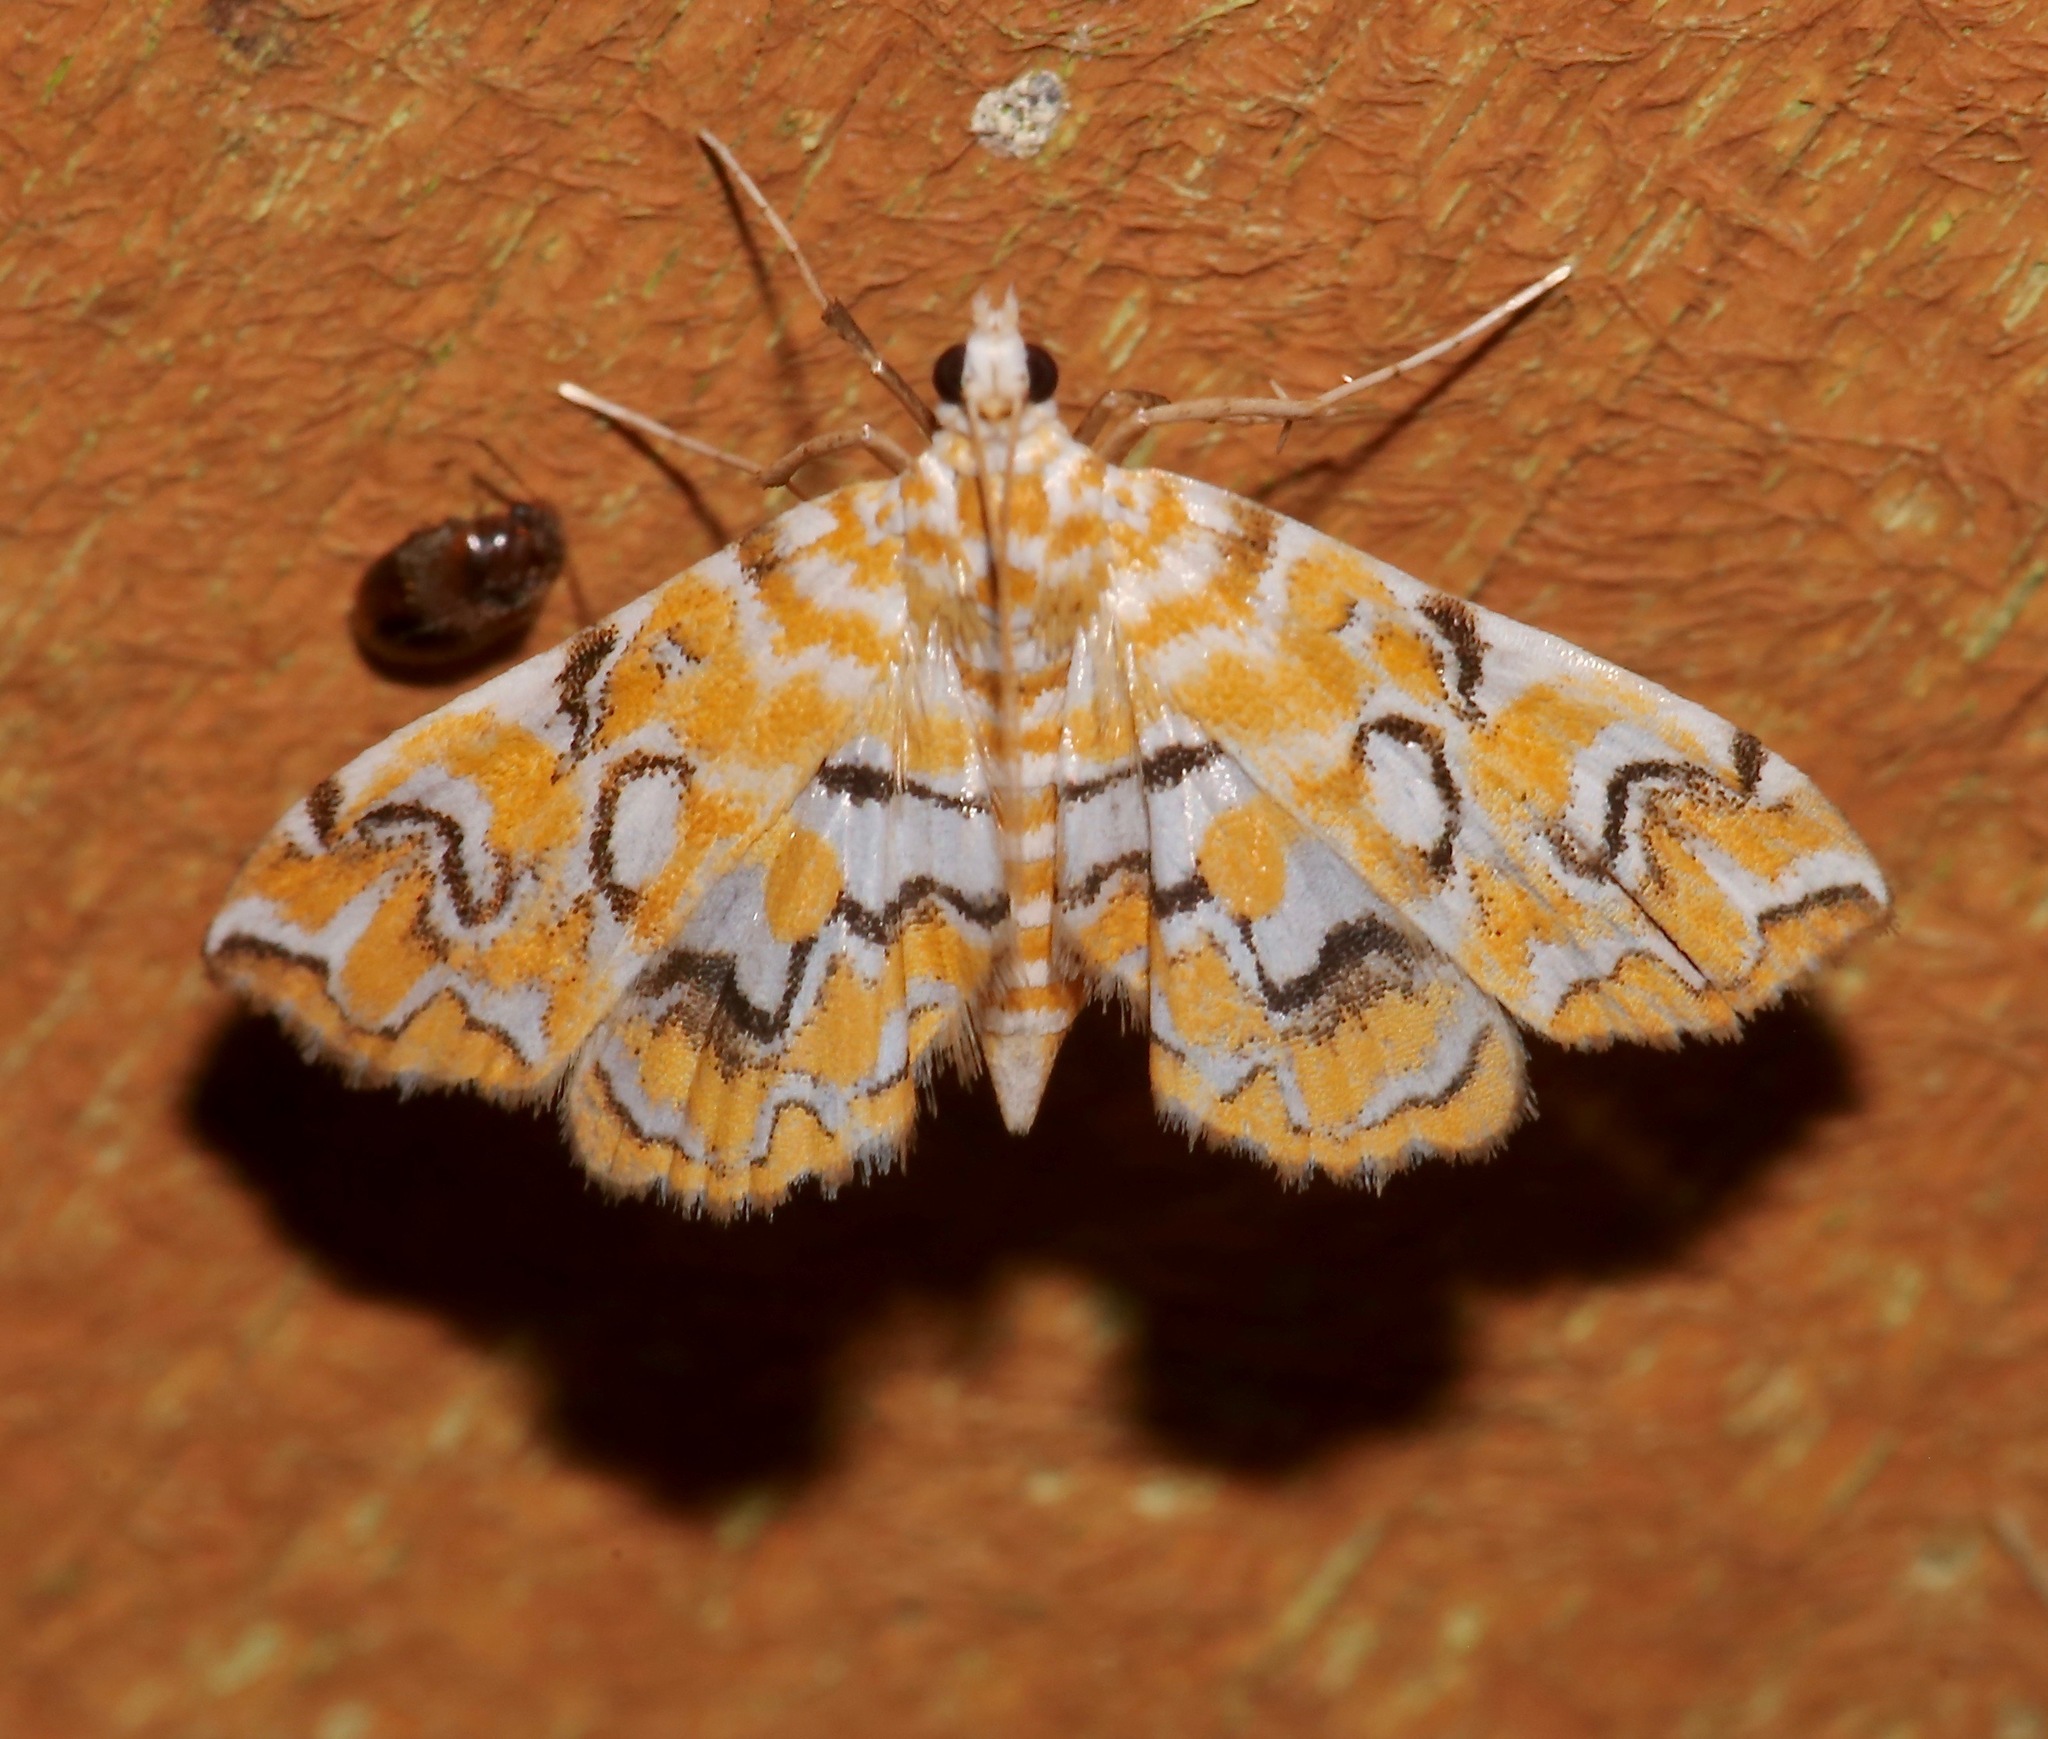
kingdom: Animalia
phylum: Arthropoda
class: Insecta
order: Lepidoptera
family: Crambidae
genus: Elophila
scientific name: Elophila icciusalis
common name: Pondside pyralid moth
